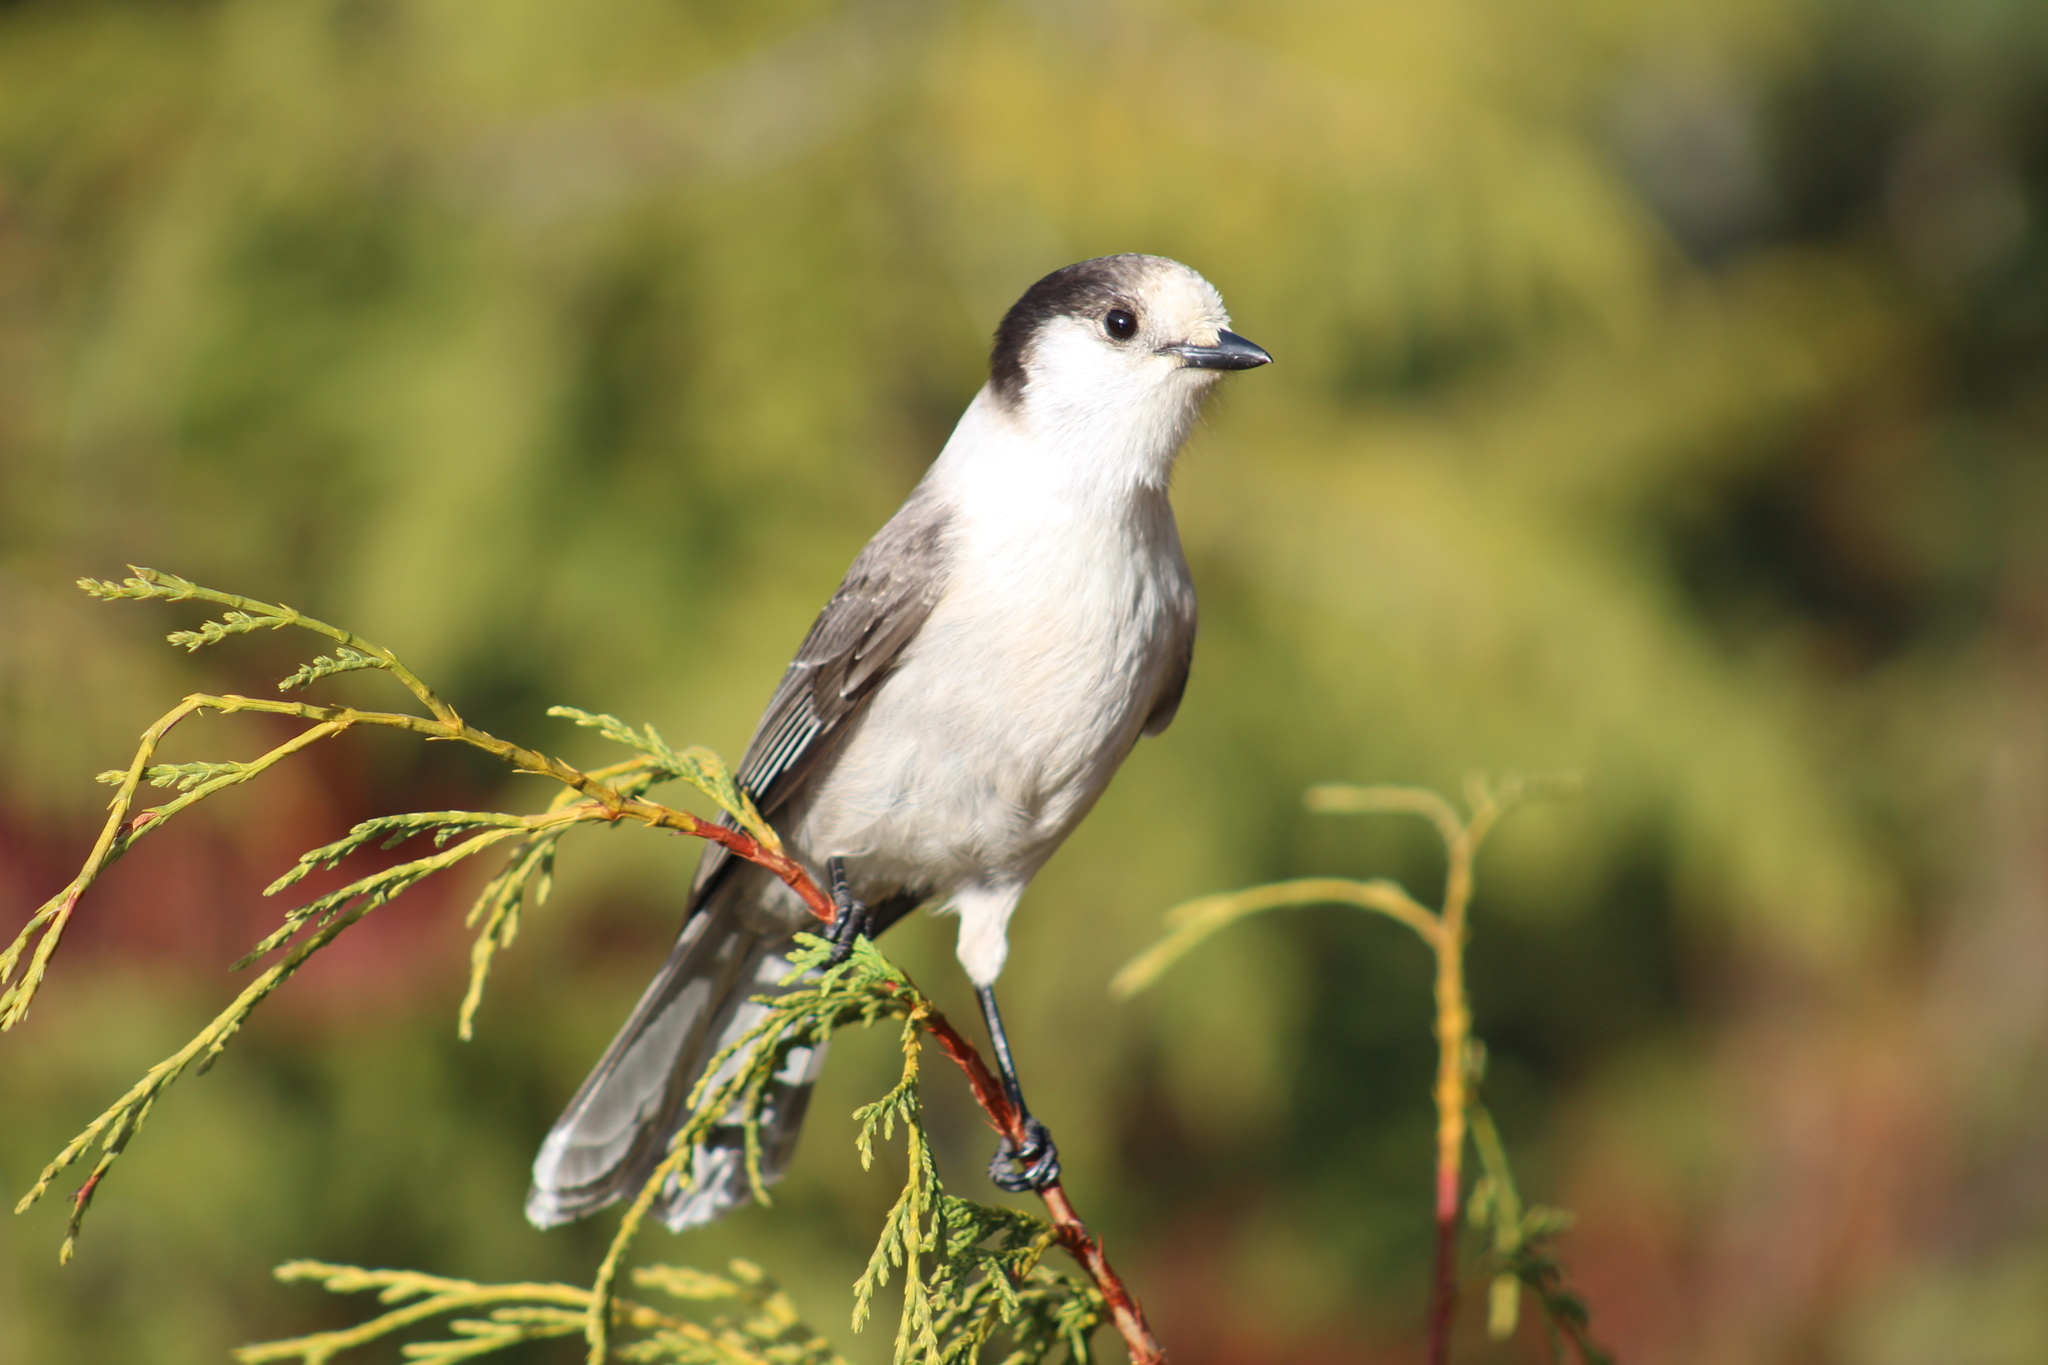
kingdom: Animalia
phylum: Chordata
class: Aves
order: Passeriformes
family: Corvidae
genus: Perisoreus
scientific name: Perisoreus canadensis
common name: Gray jay
